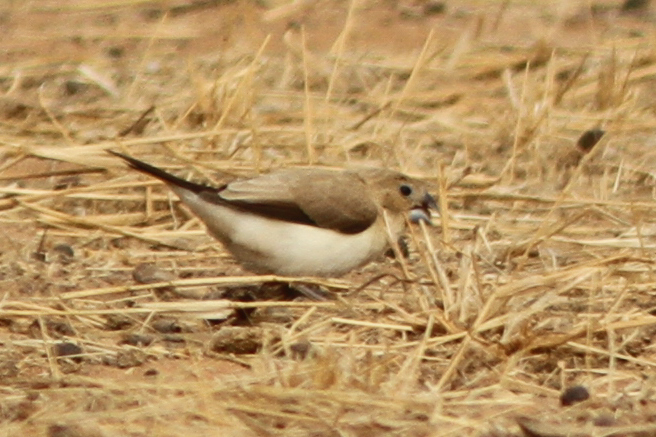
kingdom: Animalia
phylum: Chordata
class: Aves
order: Passeriformes
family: Estrildidae
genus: Euodice
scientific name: Euodice cantans
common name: African silverbill
